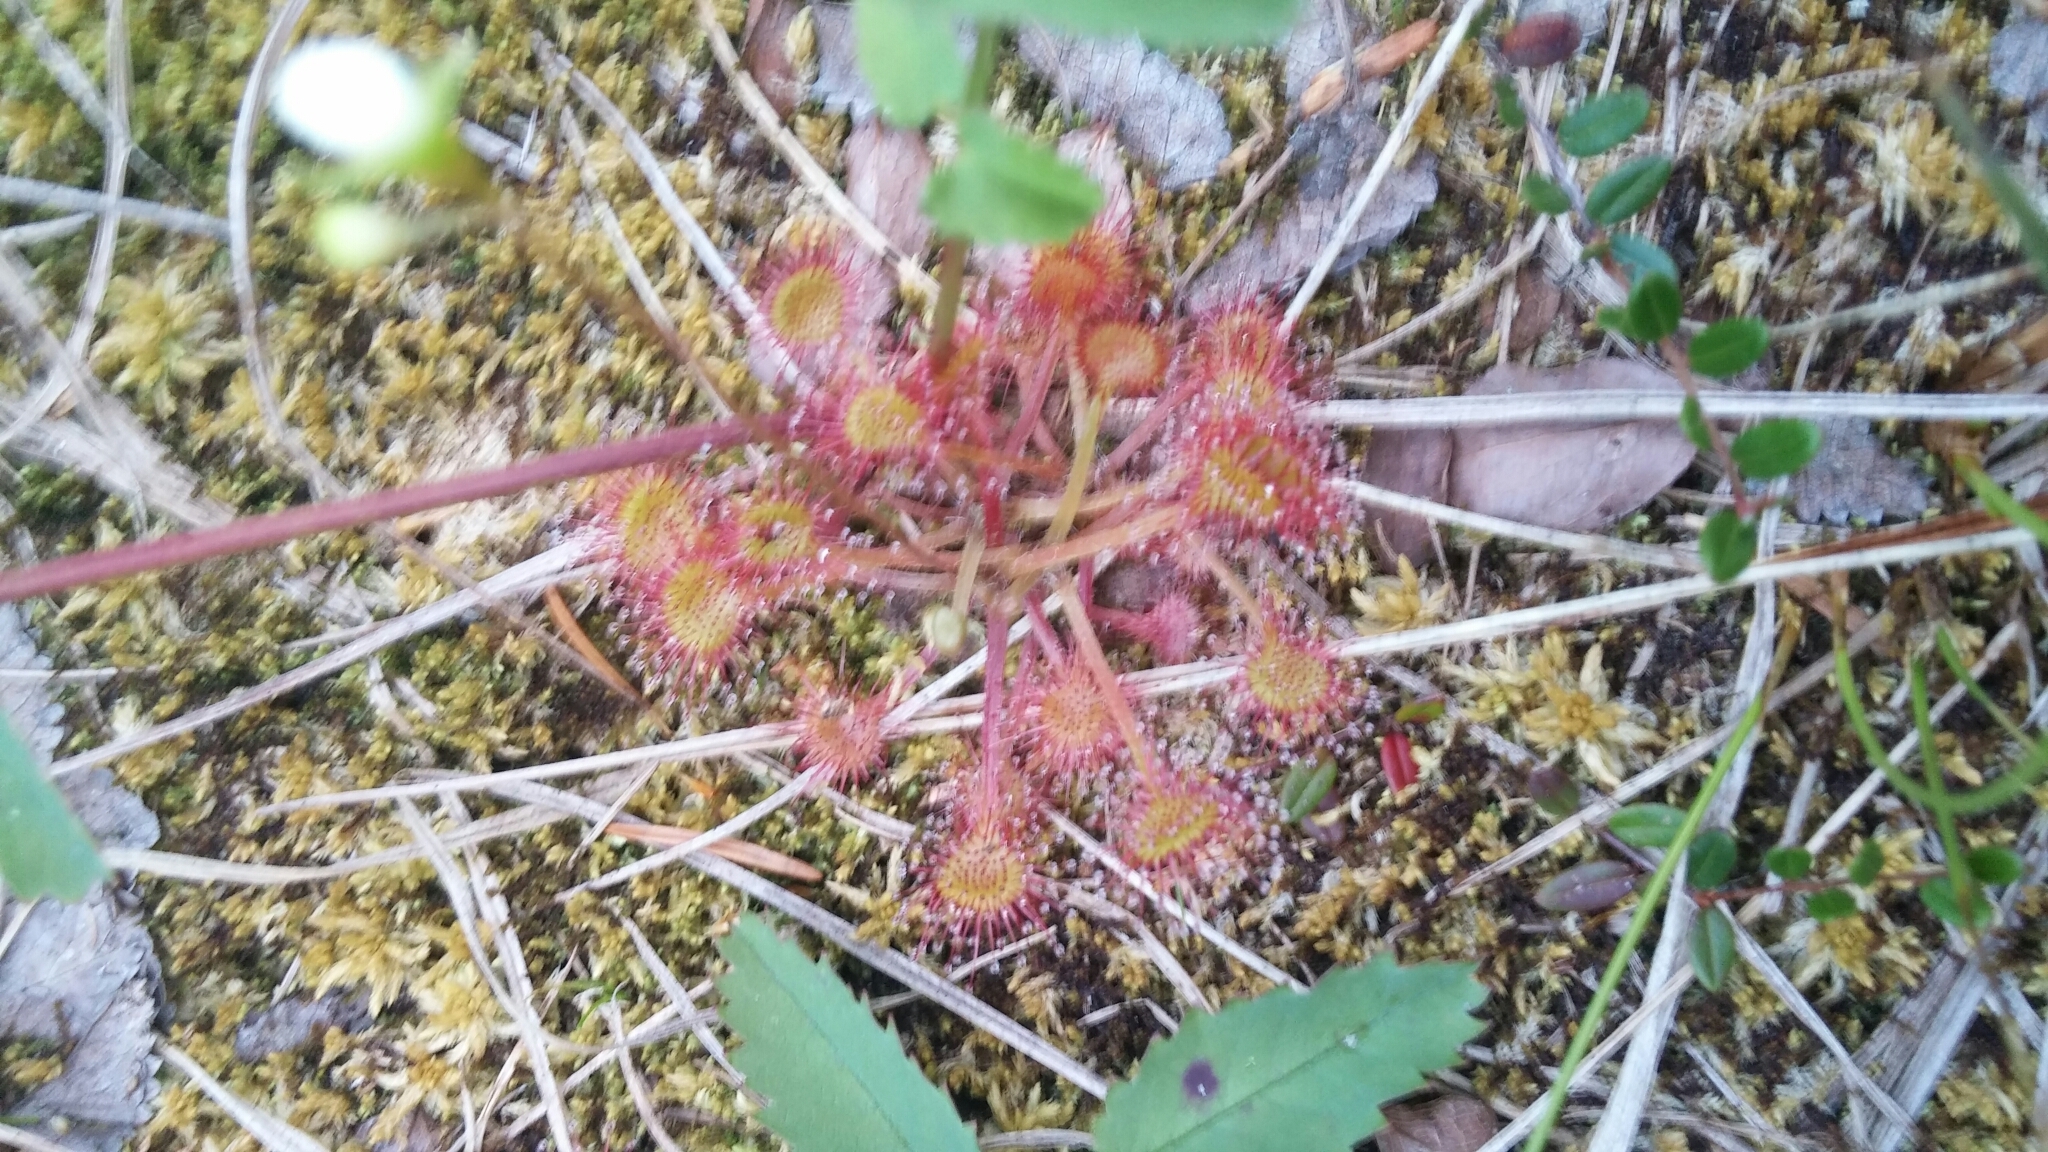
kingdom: Plantae
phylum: Tracheophyta
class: Magnoliopsida
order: Caryophyllales
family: Droseraceae
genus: Drosera
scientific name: Drosera rotundifolia
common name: Round-leaved sundew
